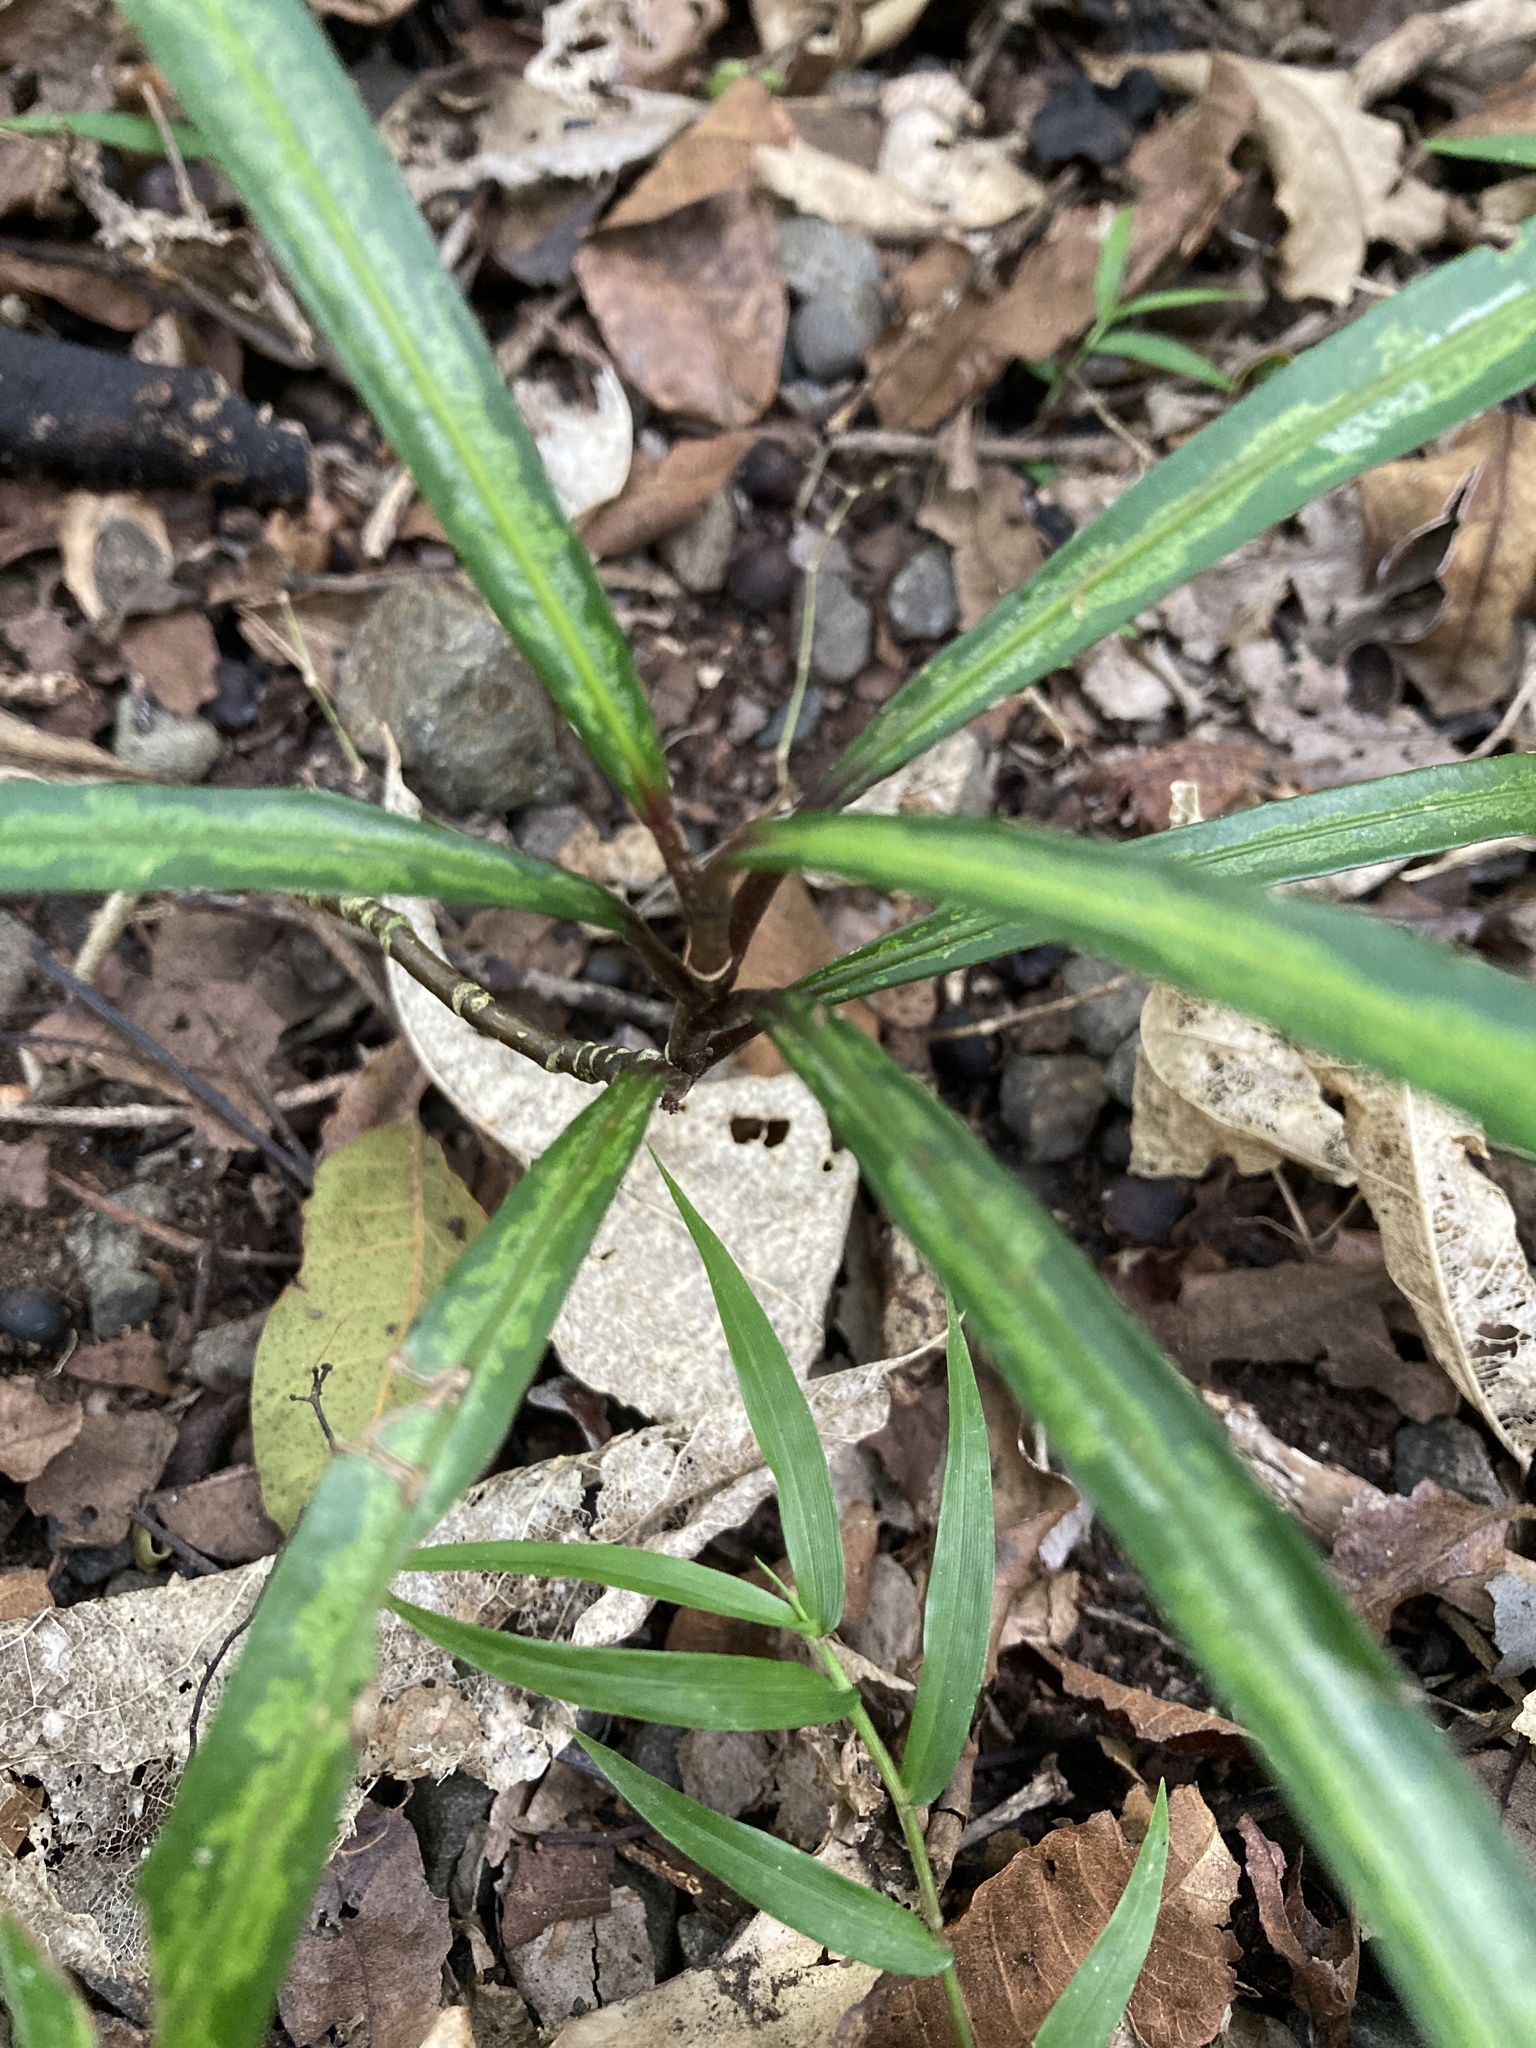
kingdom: Plantae
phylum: Tracheophyta
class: Magnoliopsida
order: Apiales
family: Araliaceae
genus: Pseudopanax
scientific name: Pseudopanax crassifolius
